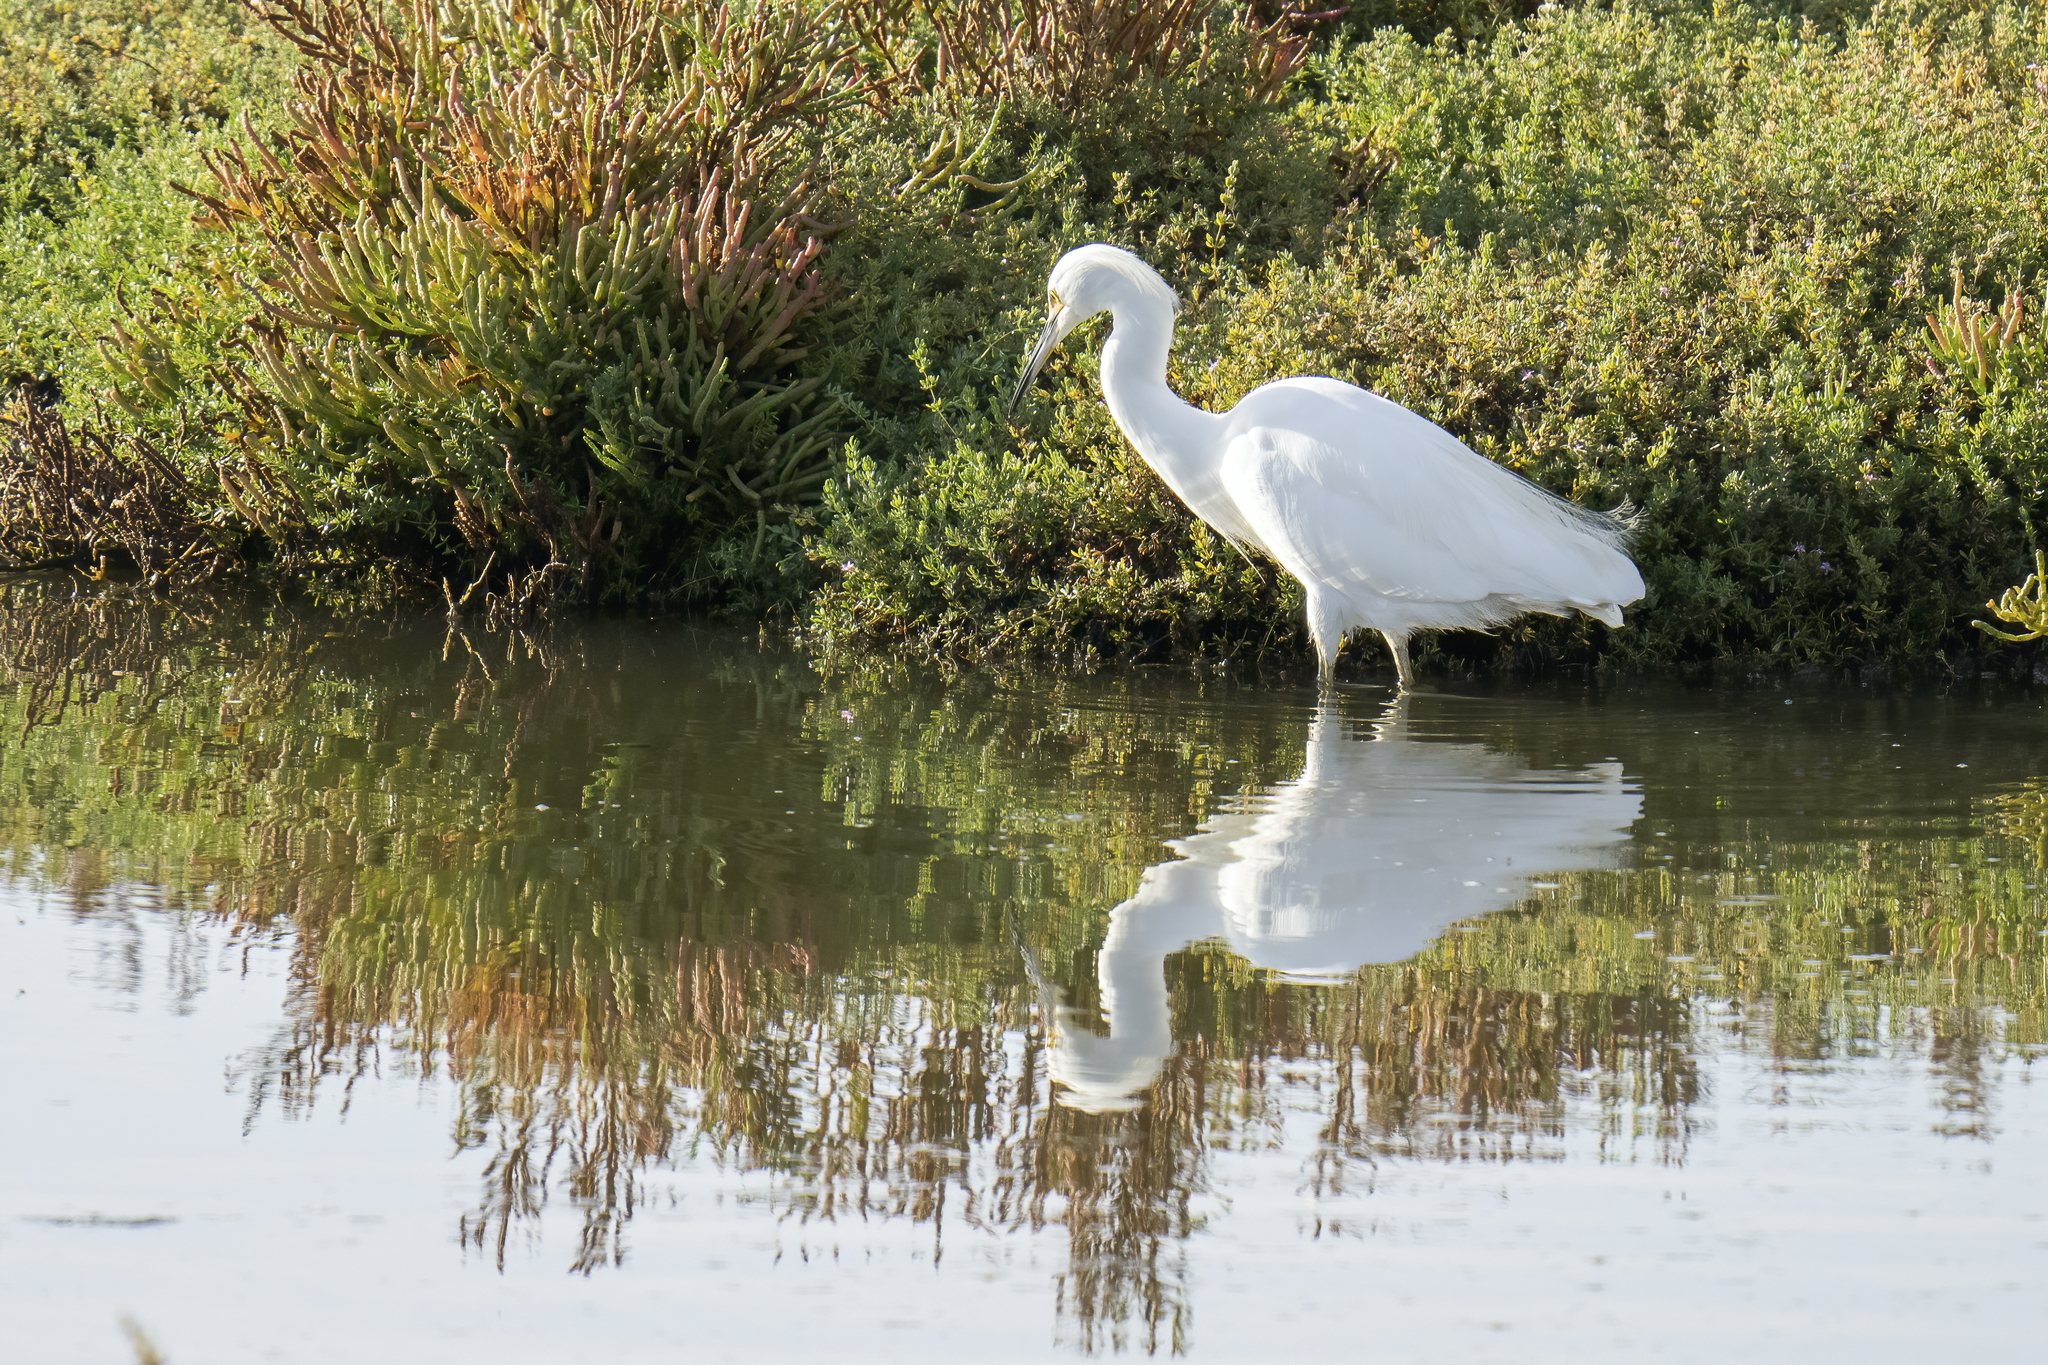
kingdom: Animalia
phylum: Chordata
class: Aves
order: Pelecaniformes
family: Ardeidae
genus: Egretta
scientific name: Egretta thula
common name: Snowy egret
